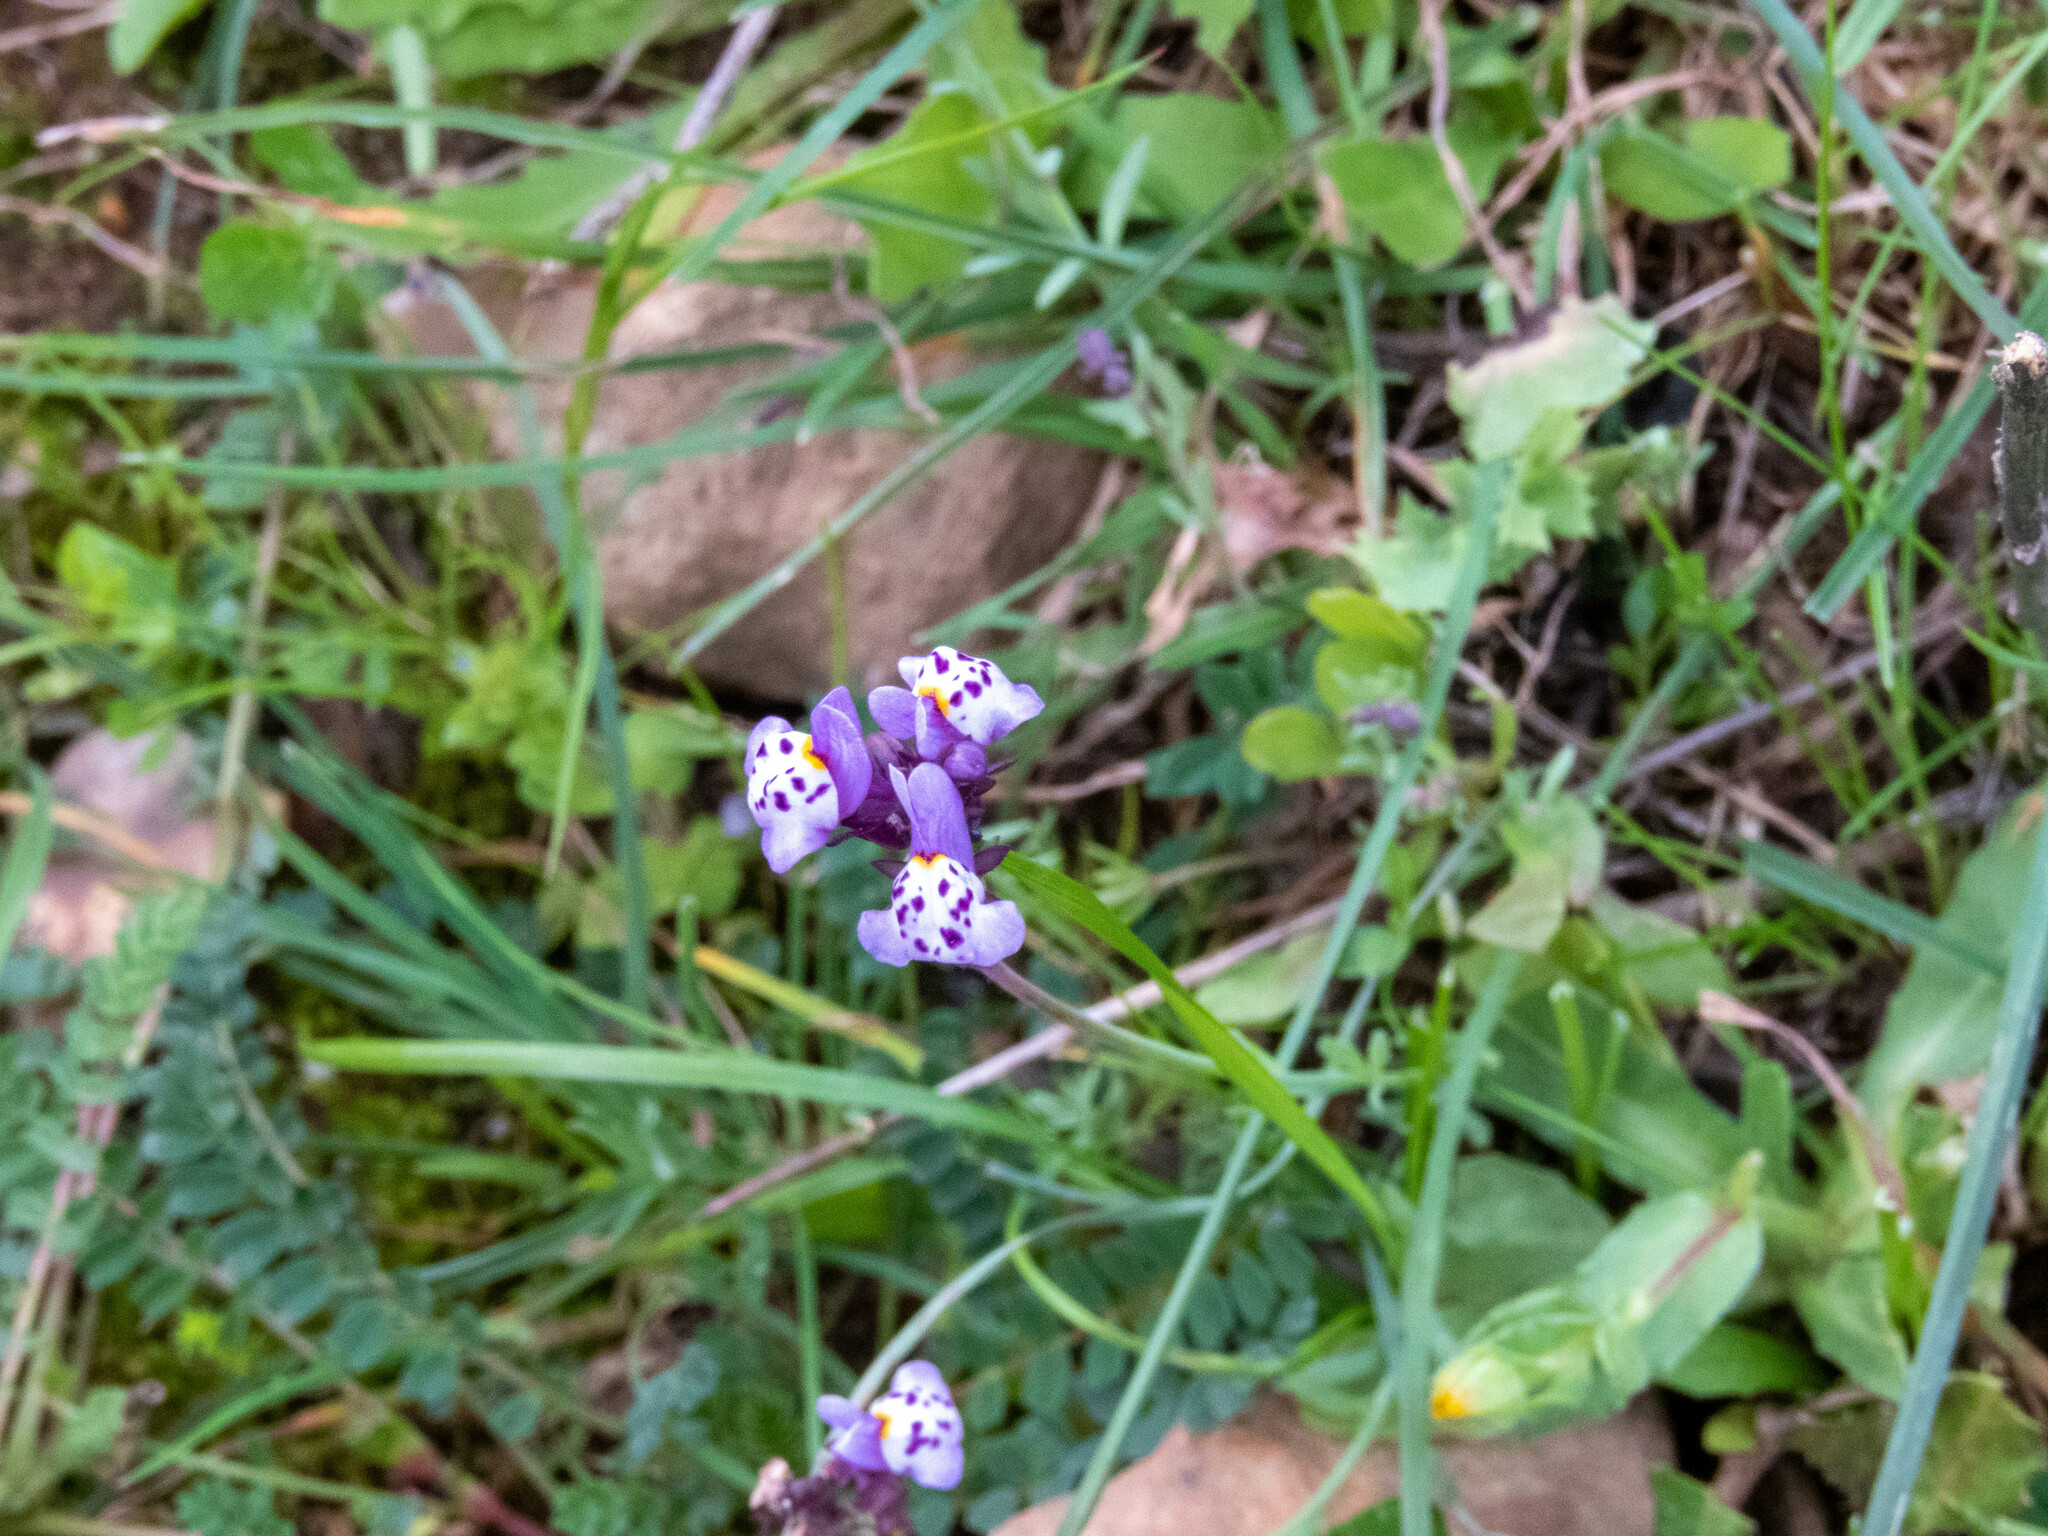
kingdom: Plantae
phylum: Tracheophyta
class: Magnoliopsida
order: Lamiales
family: Plantaginaceae
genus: Linaria
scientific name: Linaria amethystea
